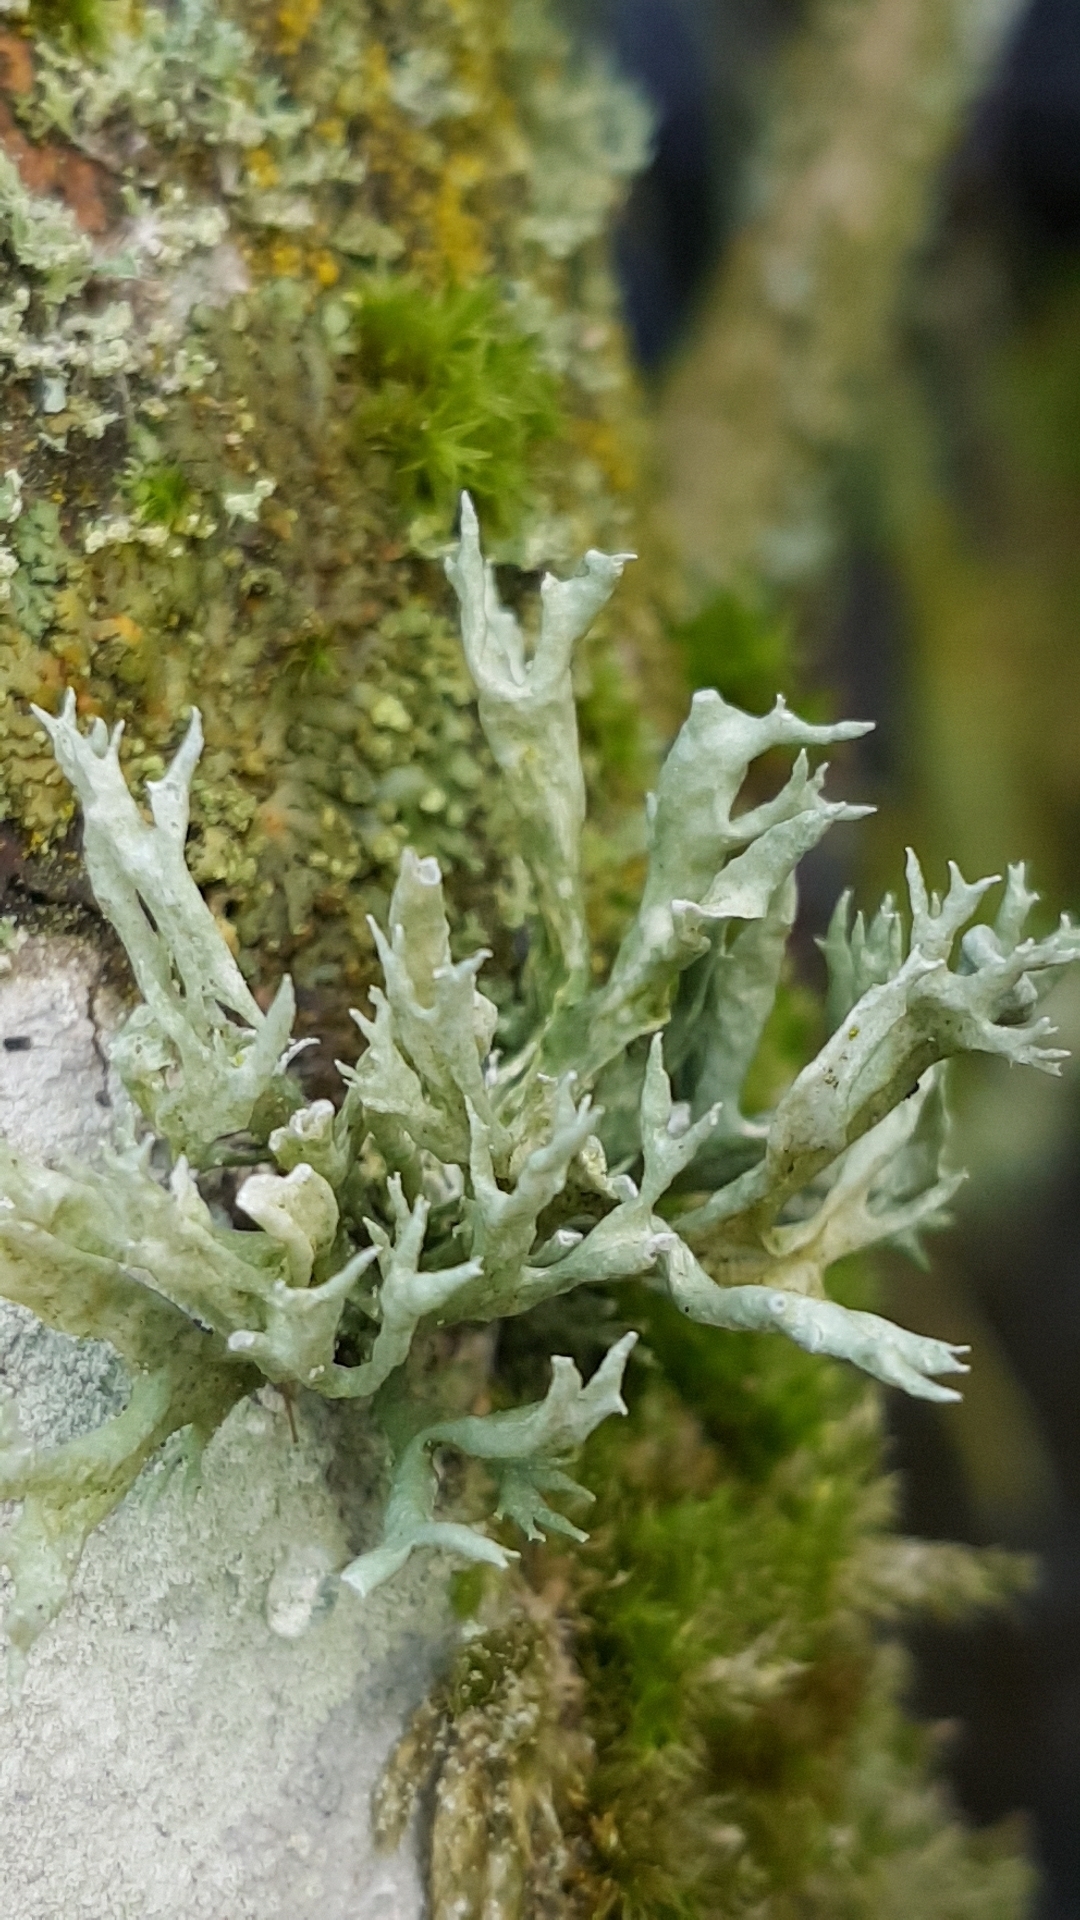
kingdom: Fungi
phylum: Ascomycota
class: Lecanoromycetes
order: Lecanorales
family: Ramalinaceae
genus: Ramalina
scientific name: Ramalina fastigiata
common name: Dotted ribbon lichen
